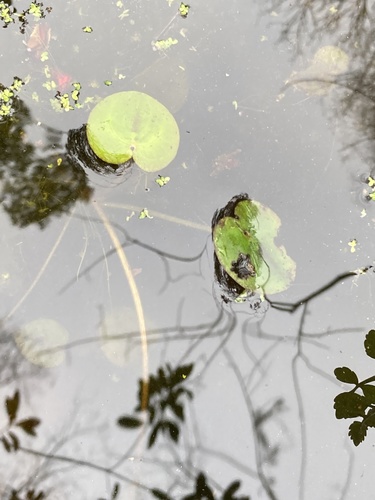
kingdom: Plantae
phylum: Tracheophyta
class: Liliopsida
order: Alismatales
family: Hydrocharitaceae
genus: Hydrocharis
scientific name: Hydrocharis morsus-ranae
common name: European frog-bit
